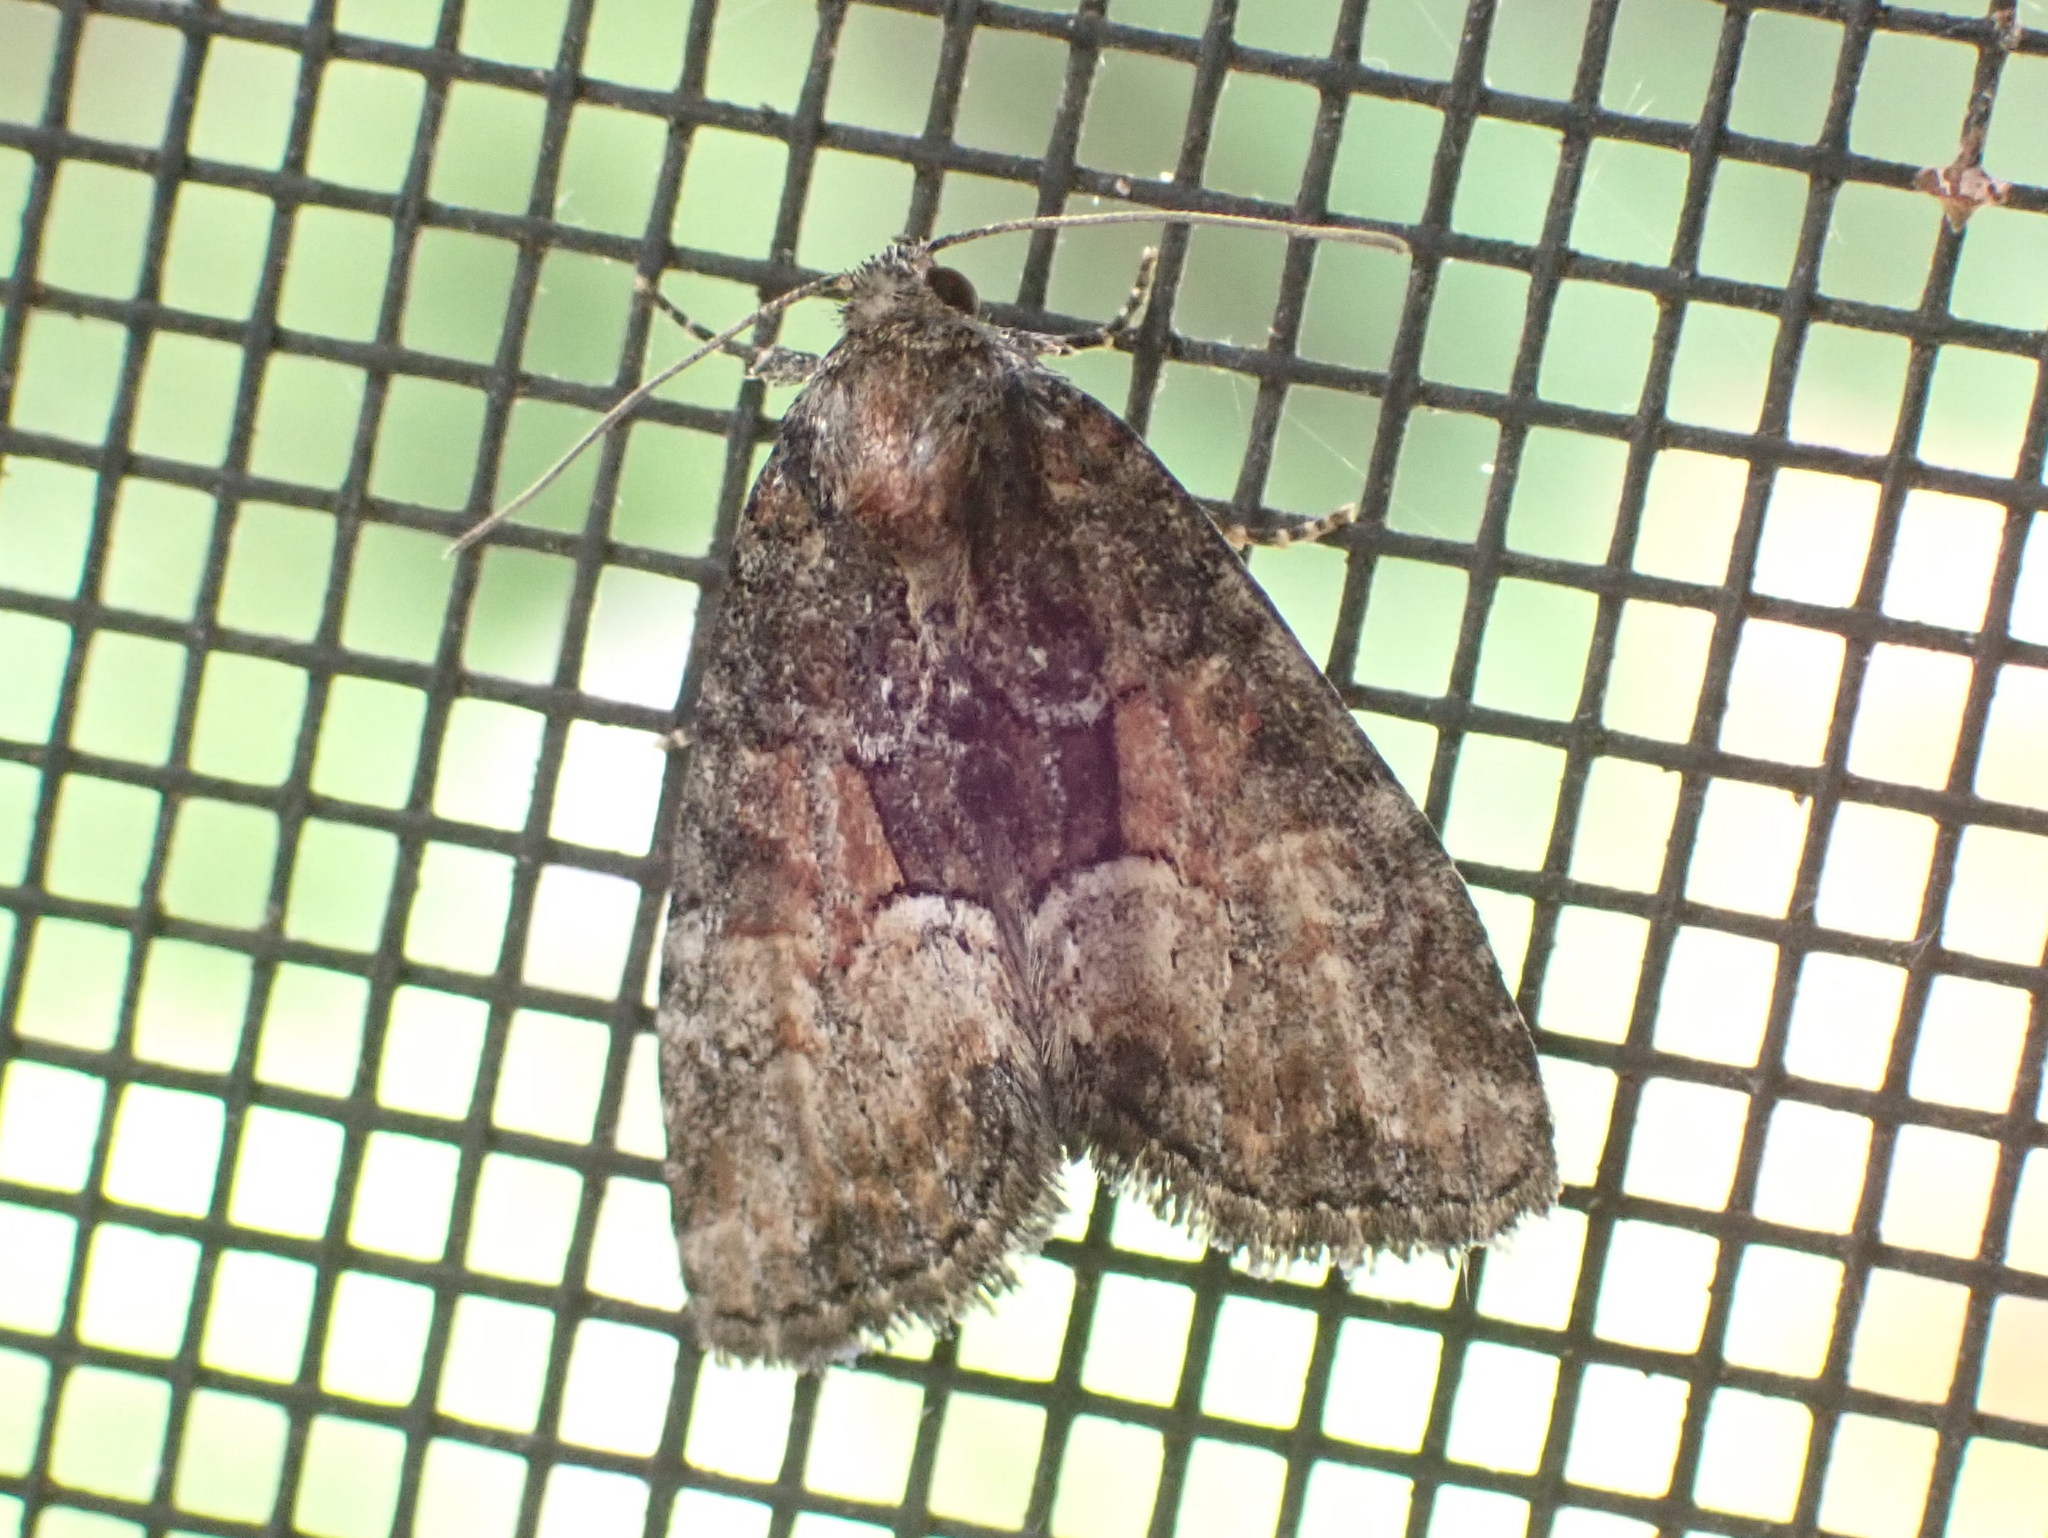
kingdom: Animalia
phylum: Arthropoda
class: Insecta
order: Lepidoptera
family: Noctuidae
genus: Neoligia
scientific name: Neoligia subjuncta
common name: Connected brocade
